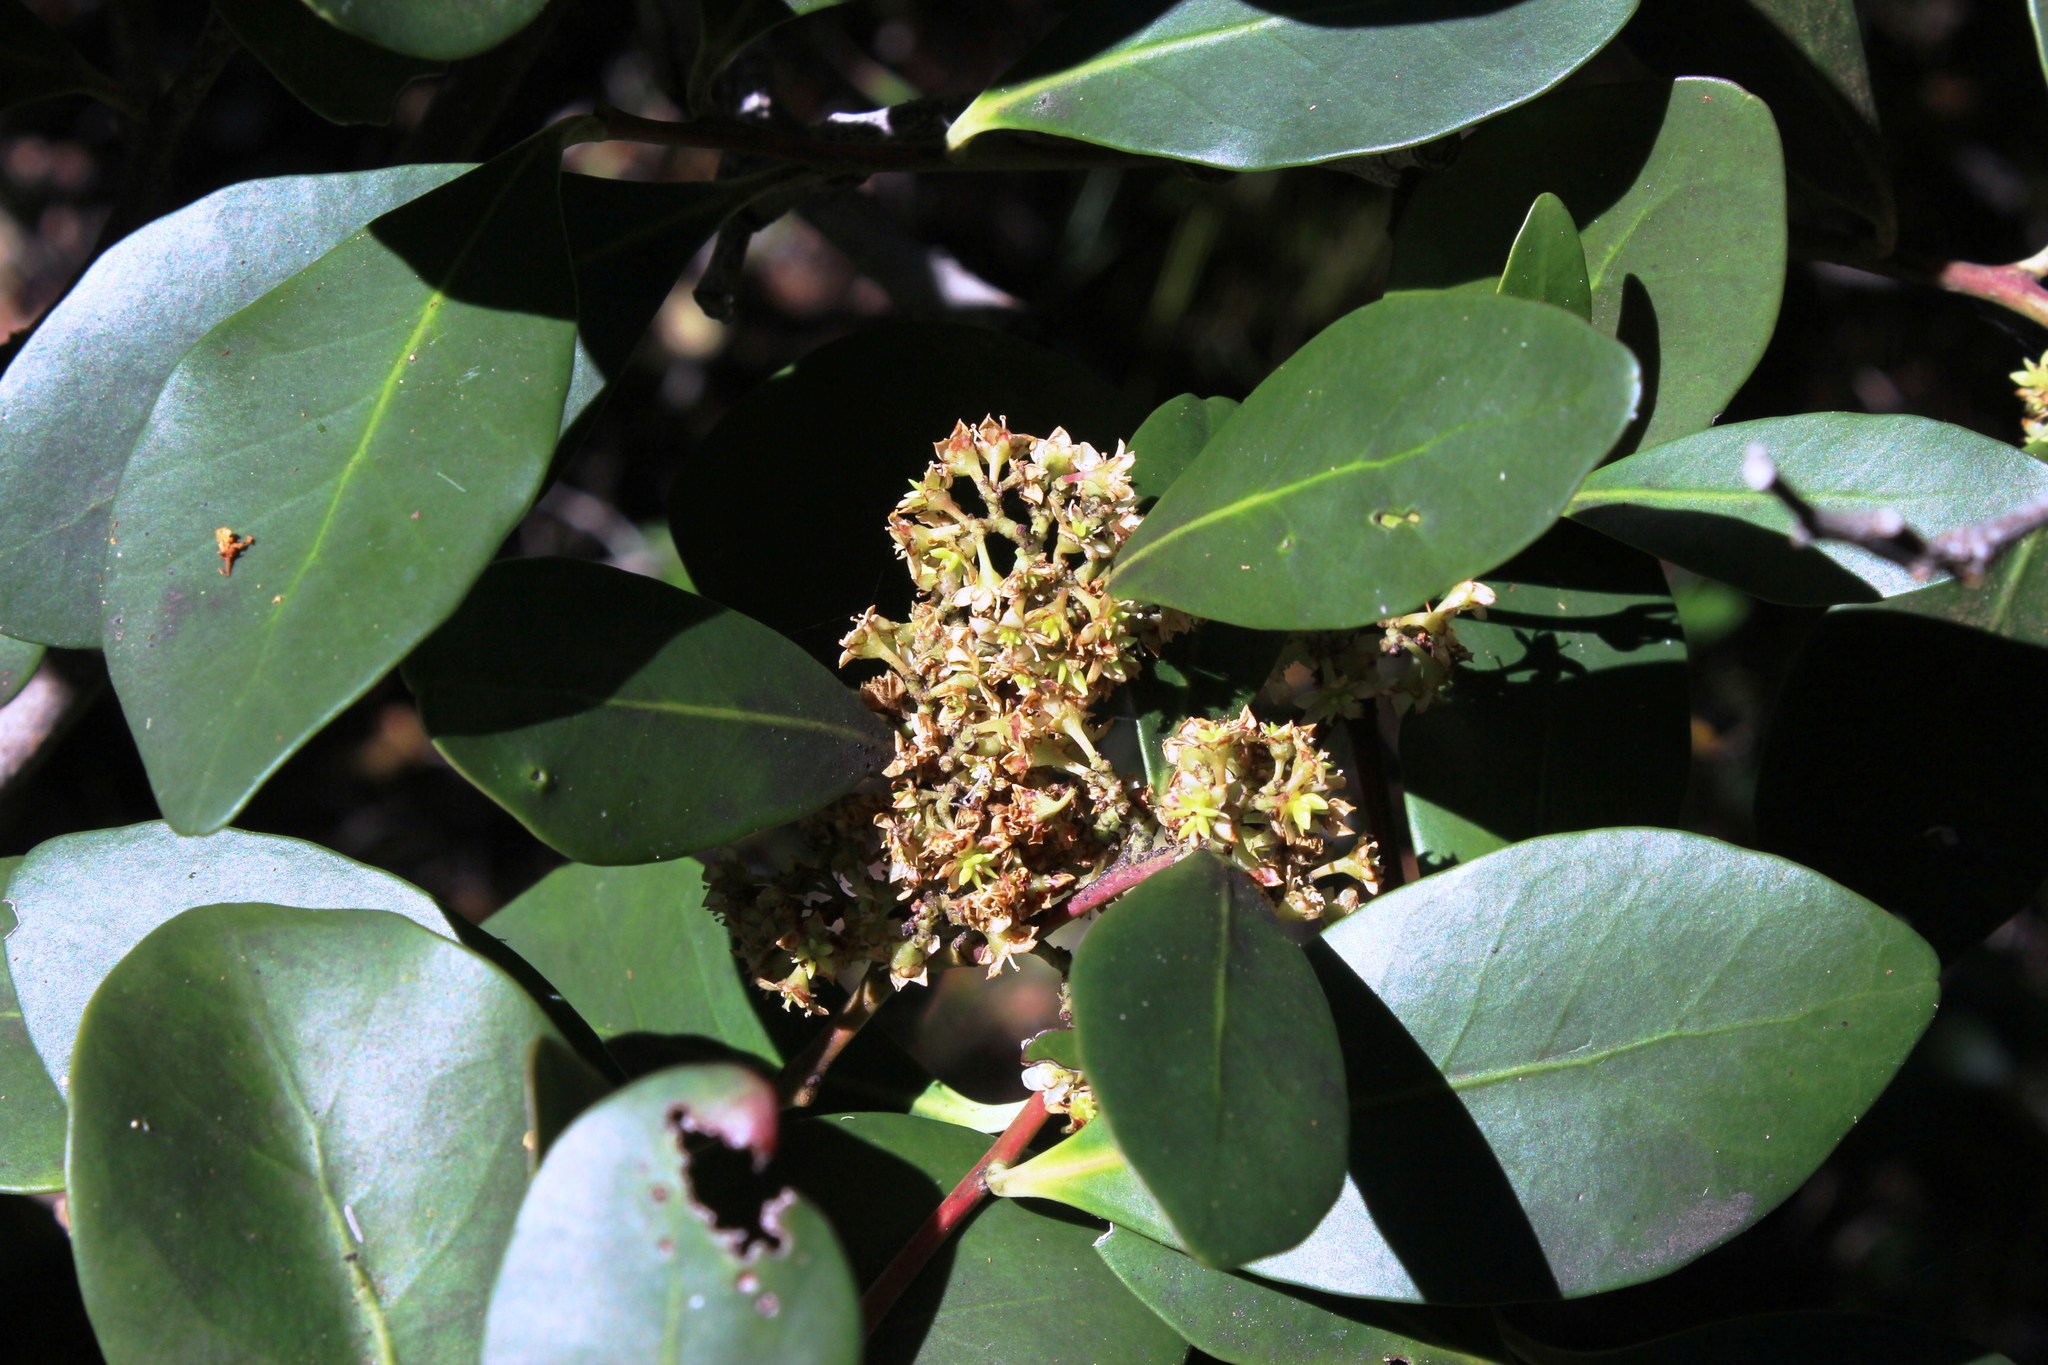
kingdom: Plantae
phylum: Tracheophyta
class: Magnoliopsida
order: Celastrales
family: Celastraceae
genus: Pterocelastrus
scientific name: Pterocelastrus tricuspidatus
